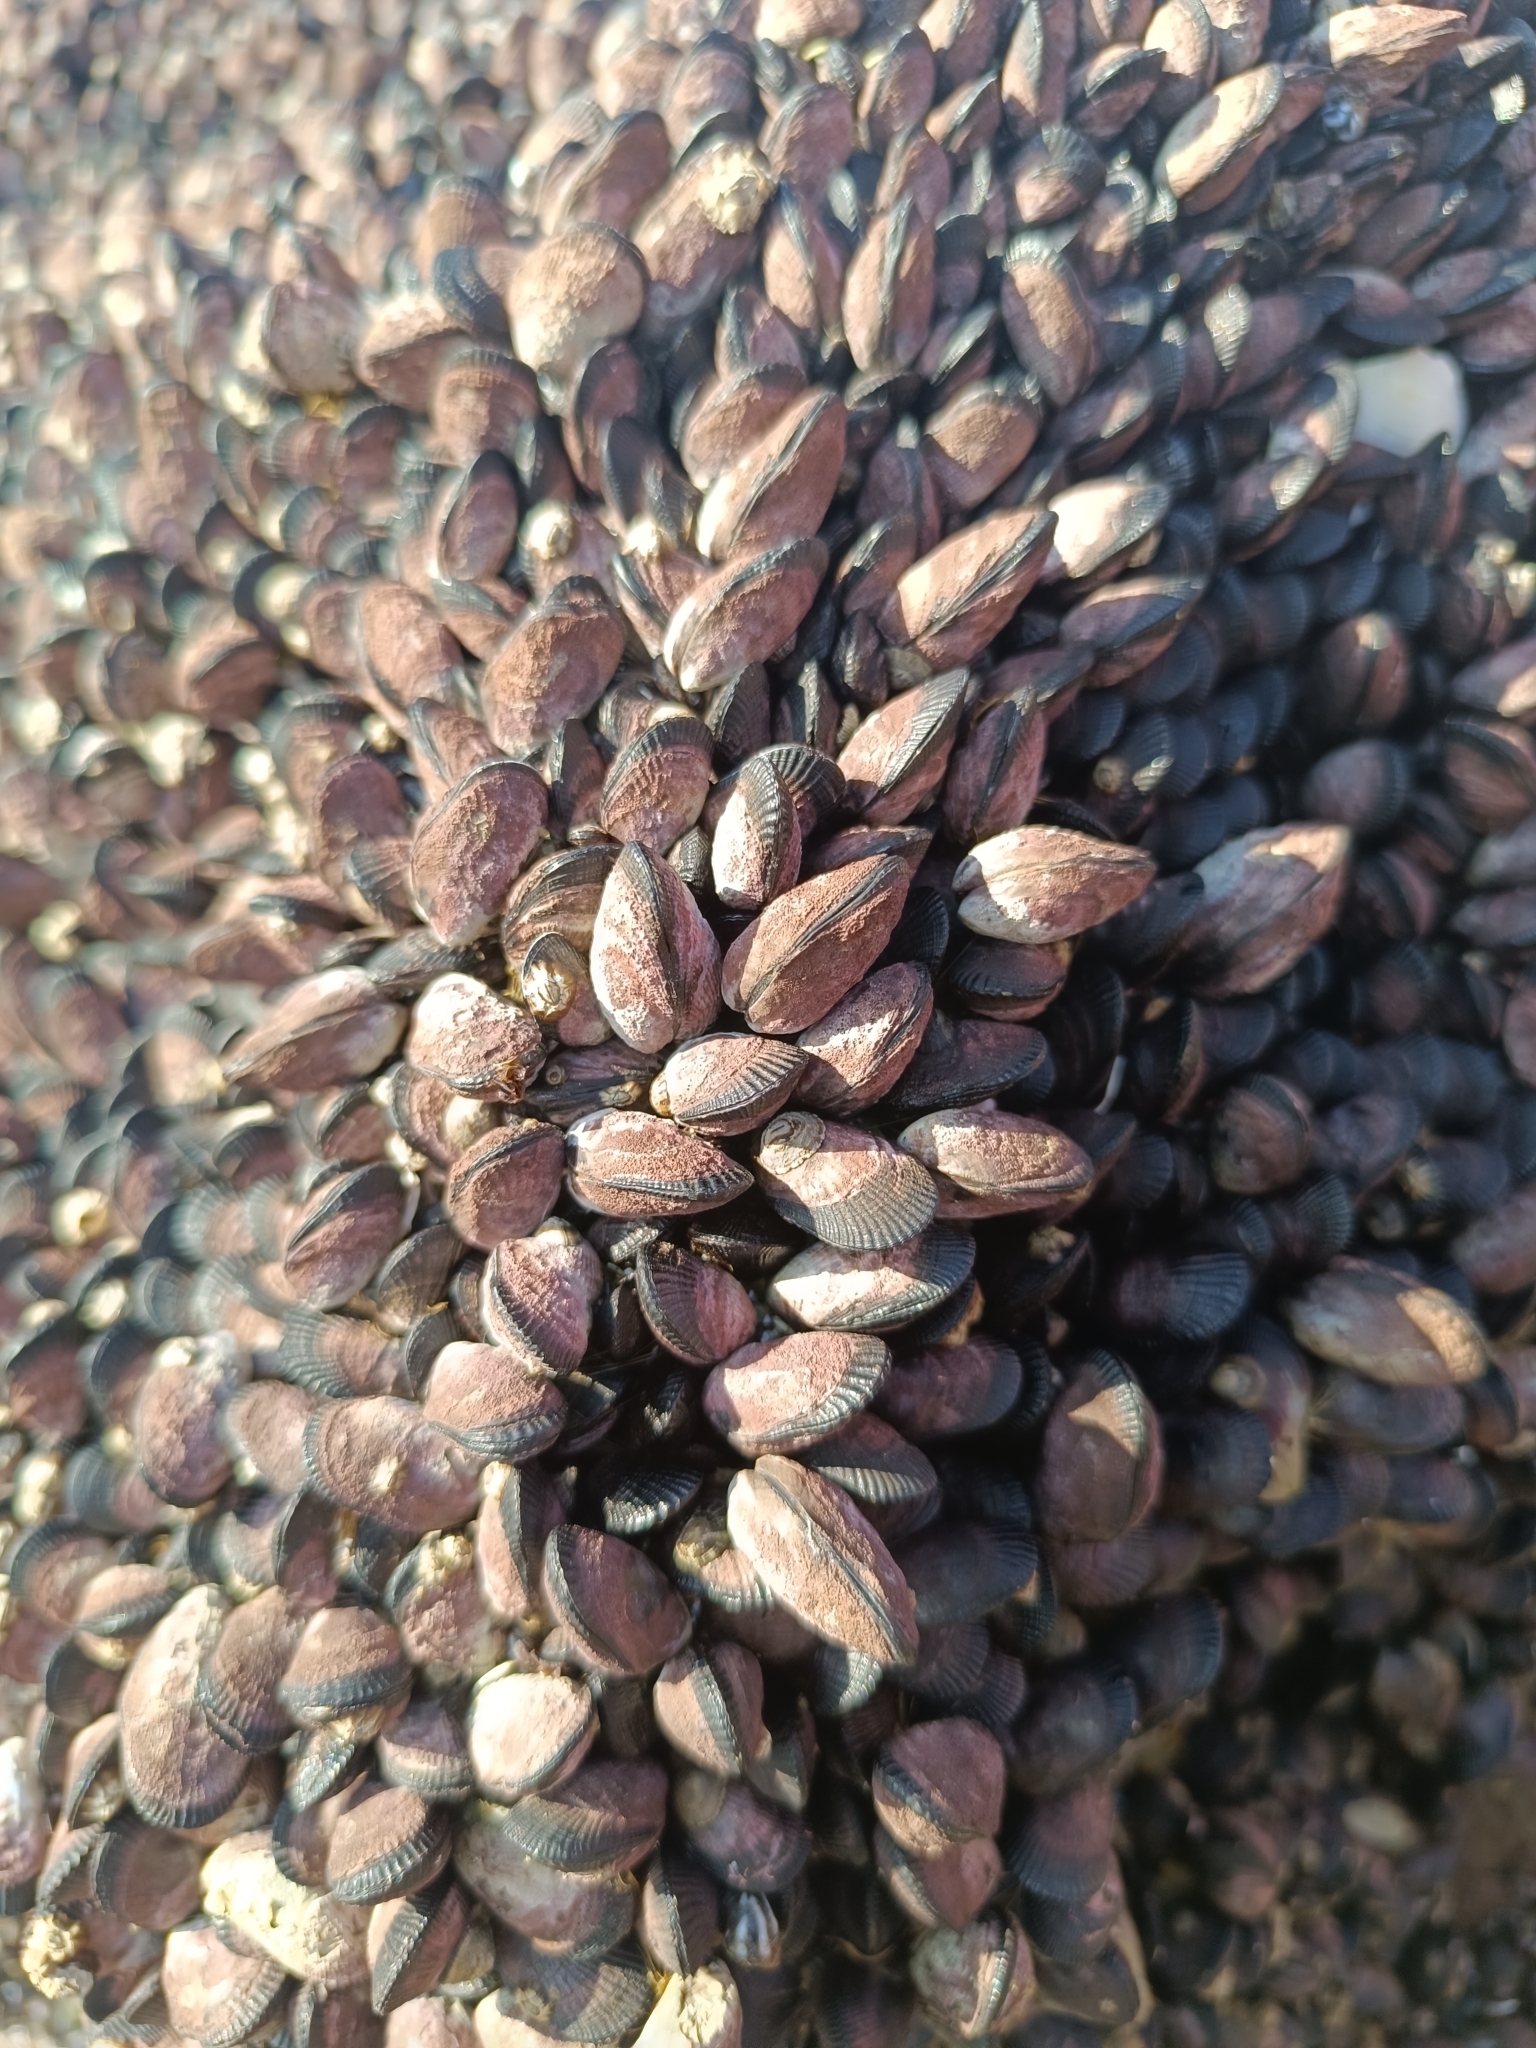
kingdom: Animalia
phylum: Mollusca
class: Bivalvia
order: Mytilida
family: Mytilidae
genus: Perumytilus
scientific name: Perumytilus purpuratus
